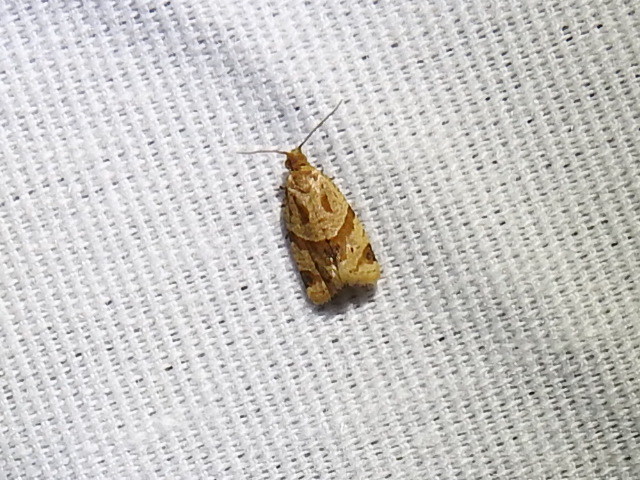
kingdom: Animalia
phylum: Arthropoda
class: Insecta
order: Lepidoptera
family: Tortricidae
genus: Clepsis
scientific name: Clepsis peritana
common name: Garden tortrix
